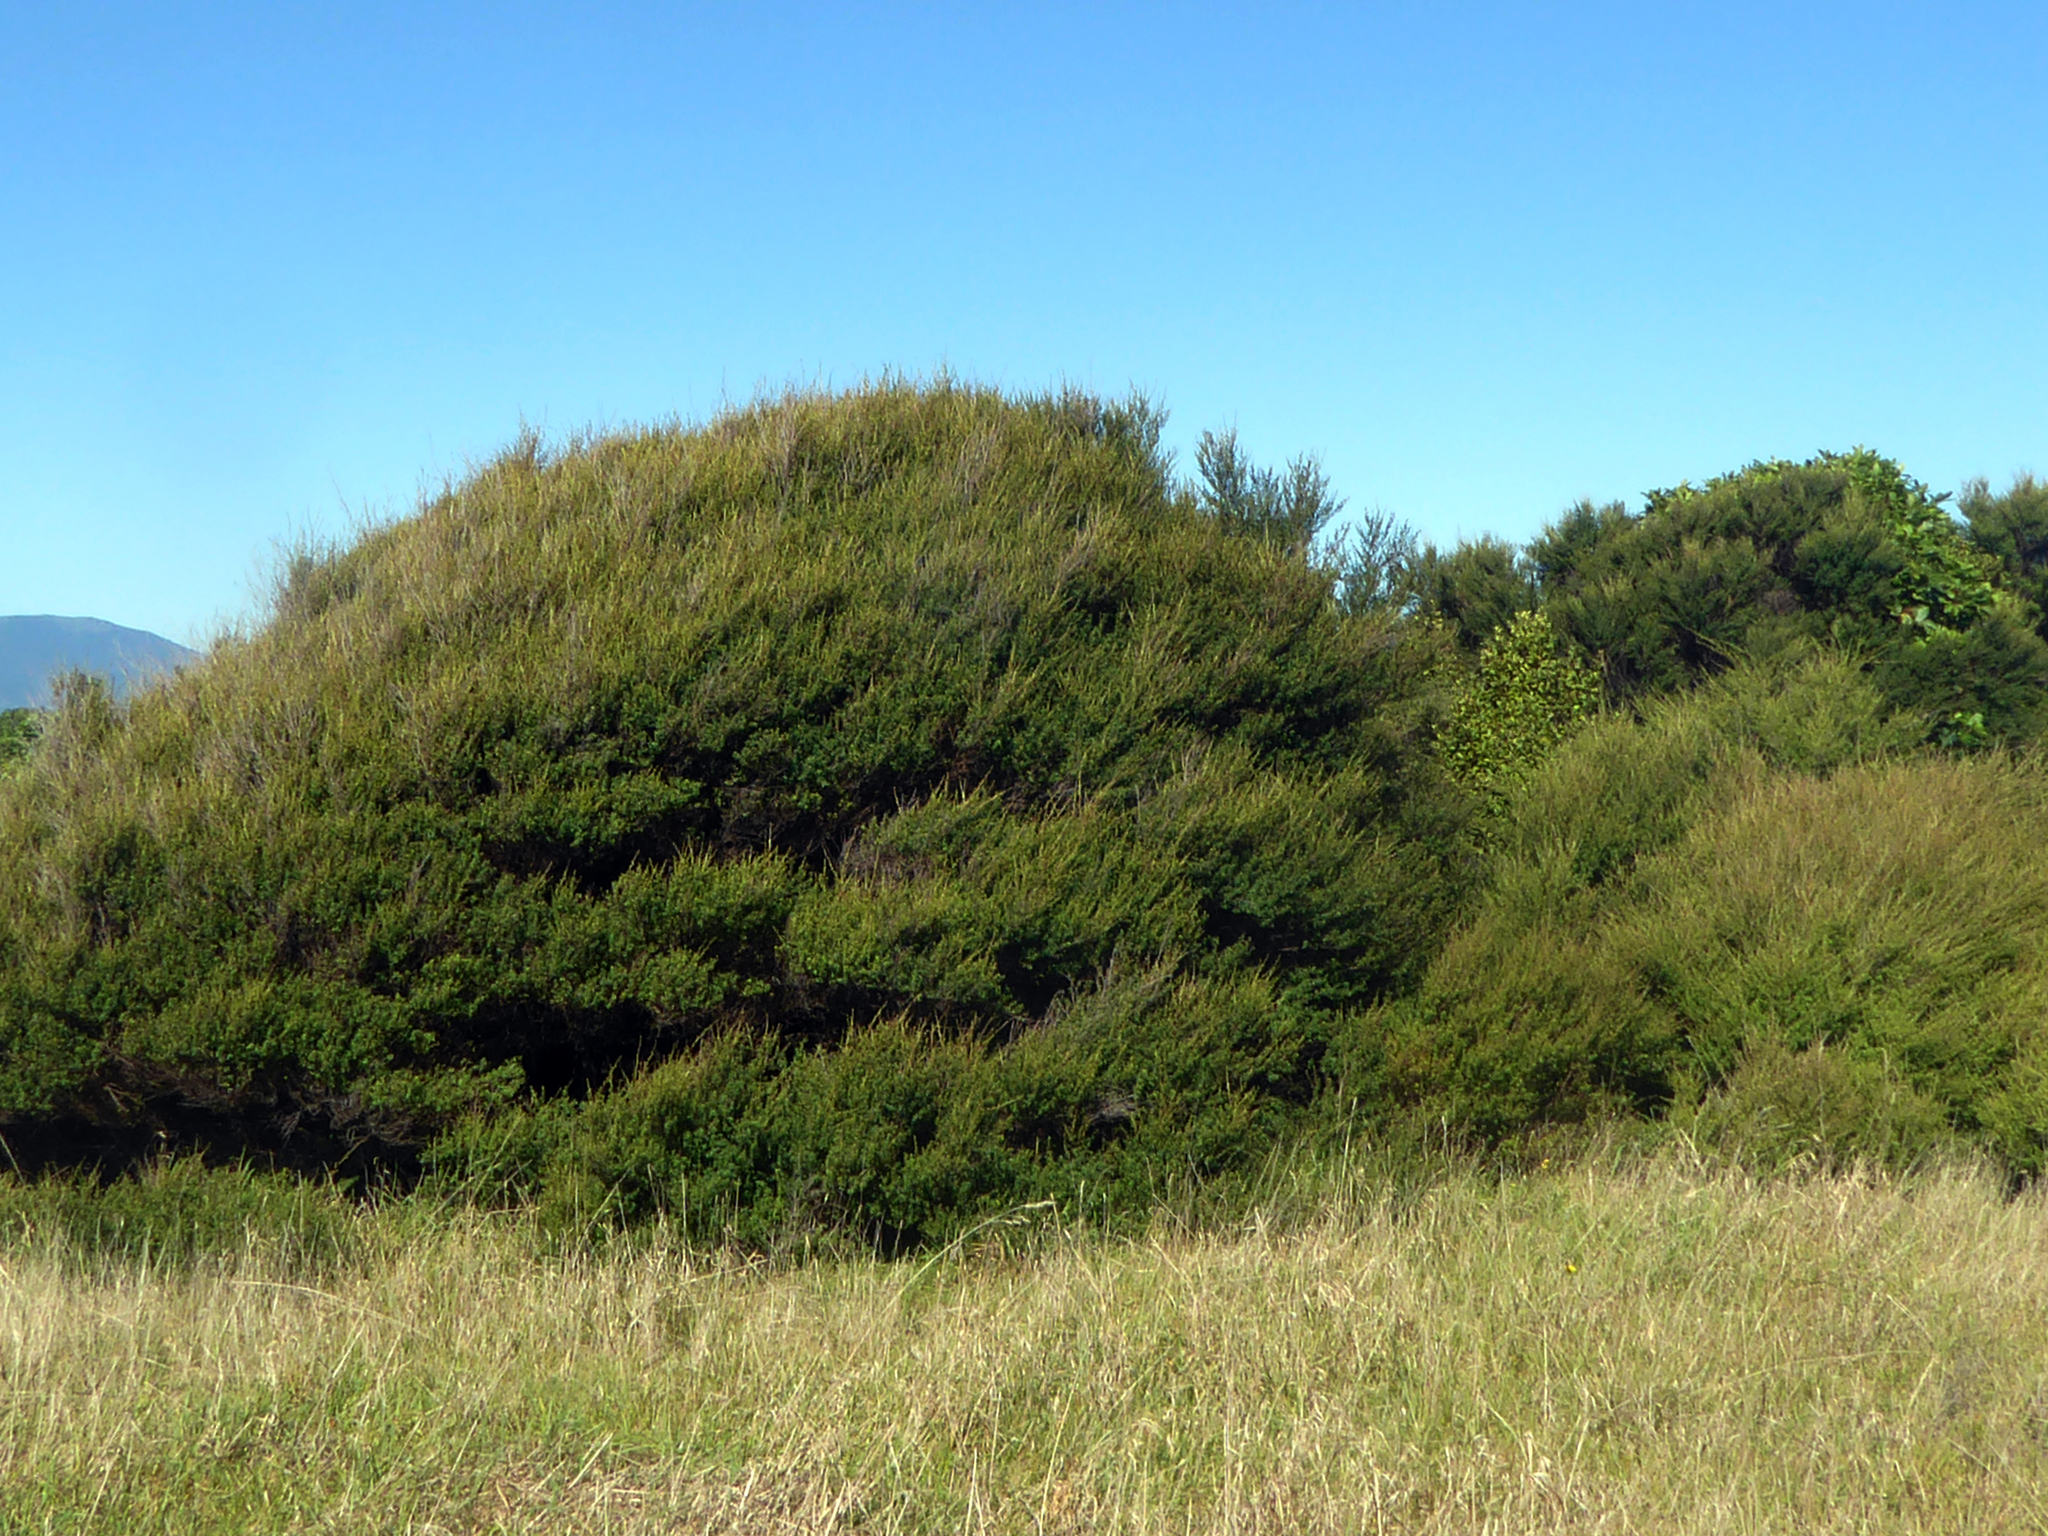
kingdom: Plantae
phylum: Tracheophyta
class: Magnoliopsida
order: Myrtales
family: Myrtaceae
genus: Kunzea
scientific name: Kunzea amathicola
